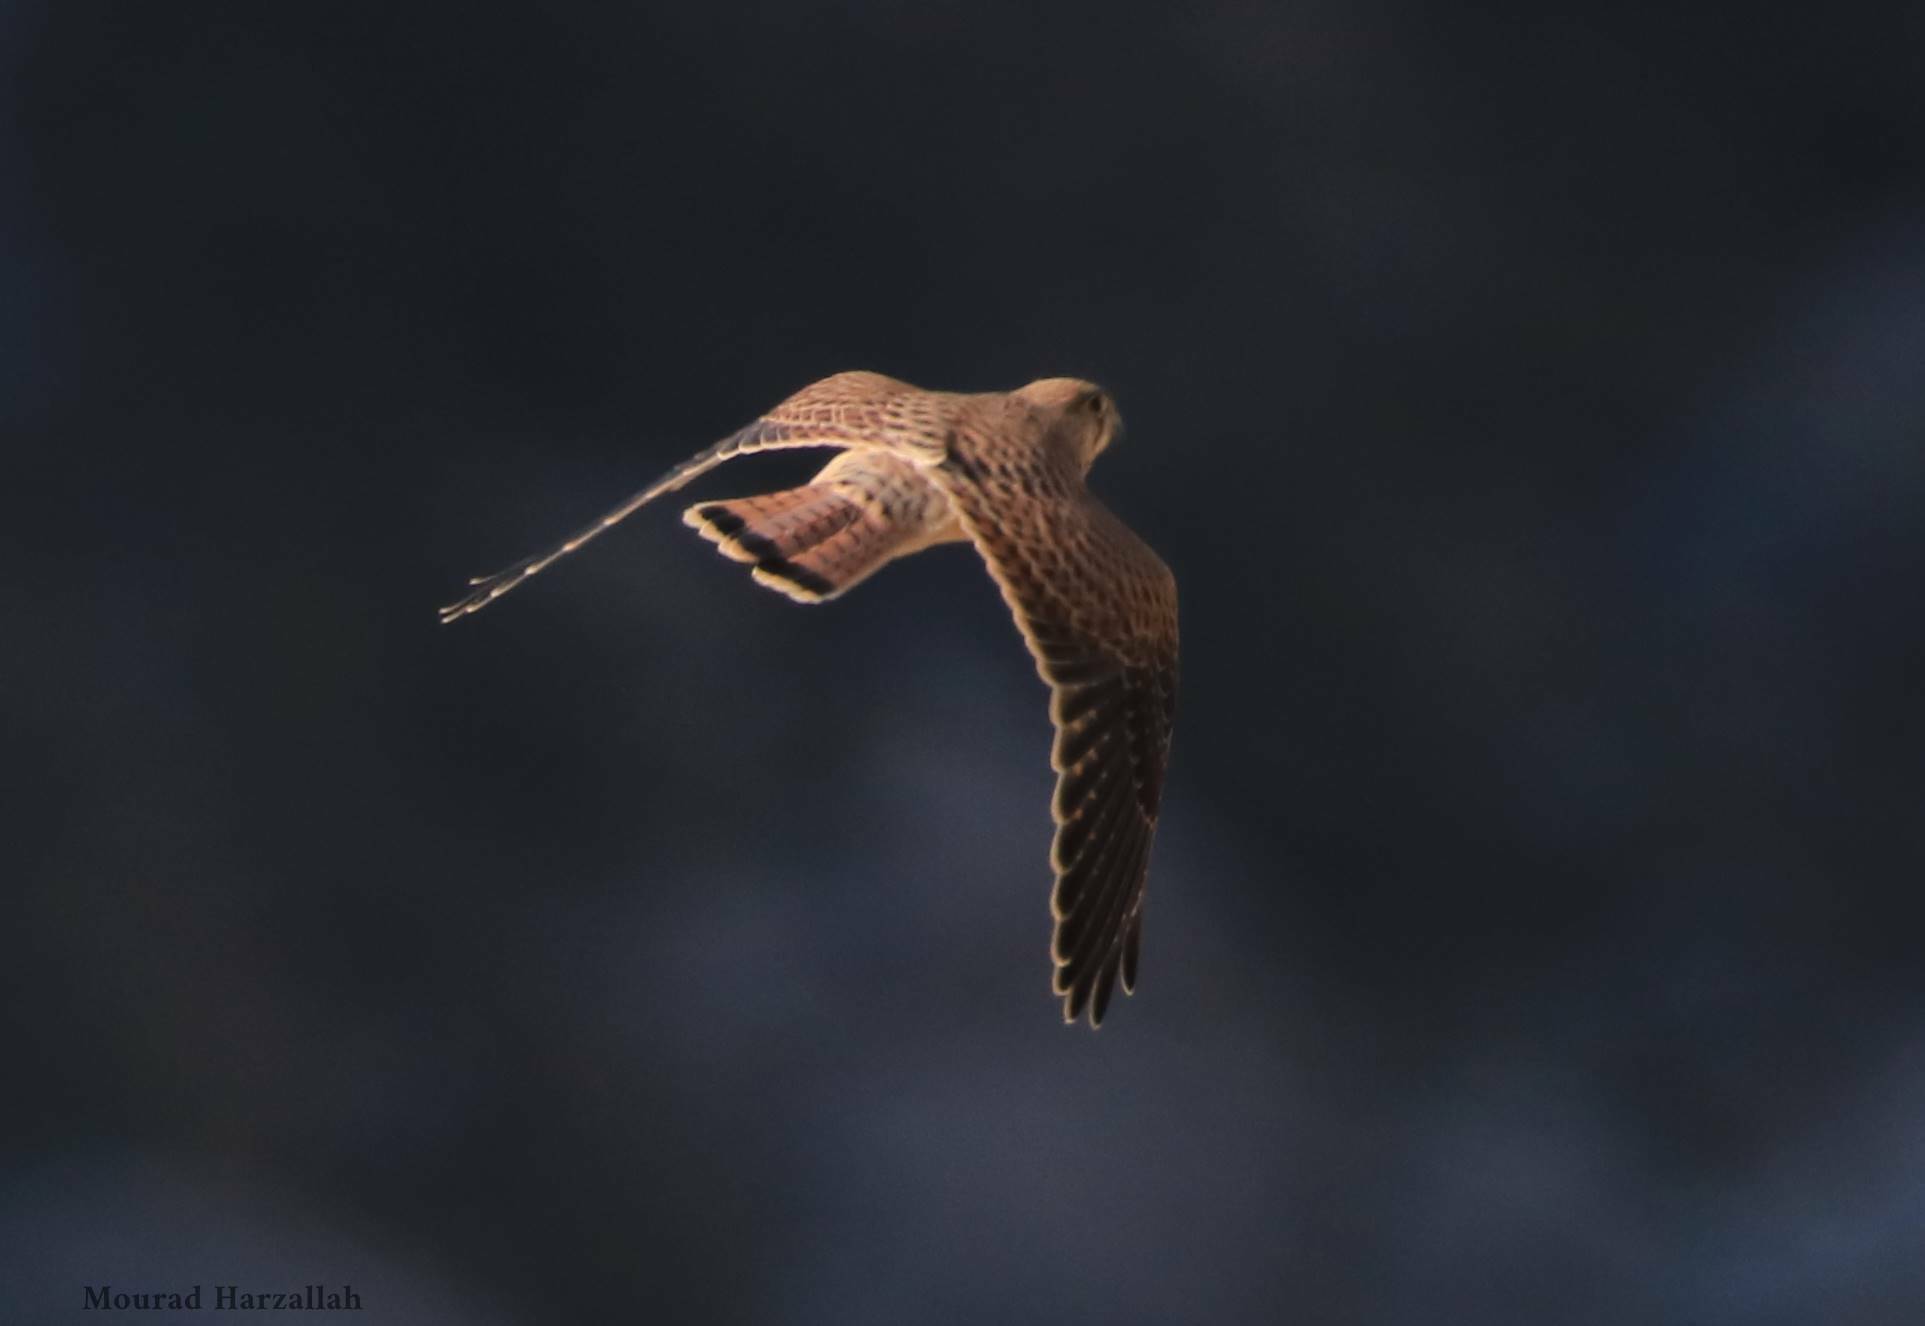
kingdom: Animalia
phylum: Chordata
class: Aves
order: Falconiformes
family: Falconidae
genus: Falco
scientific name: Falco tinnunculus
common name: Common kestrel
